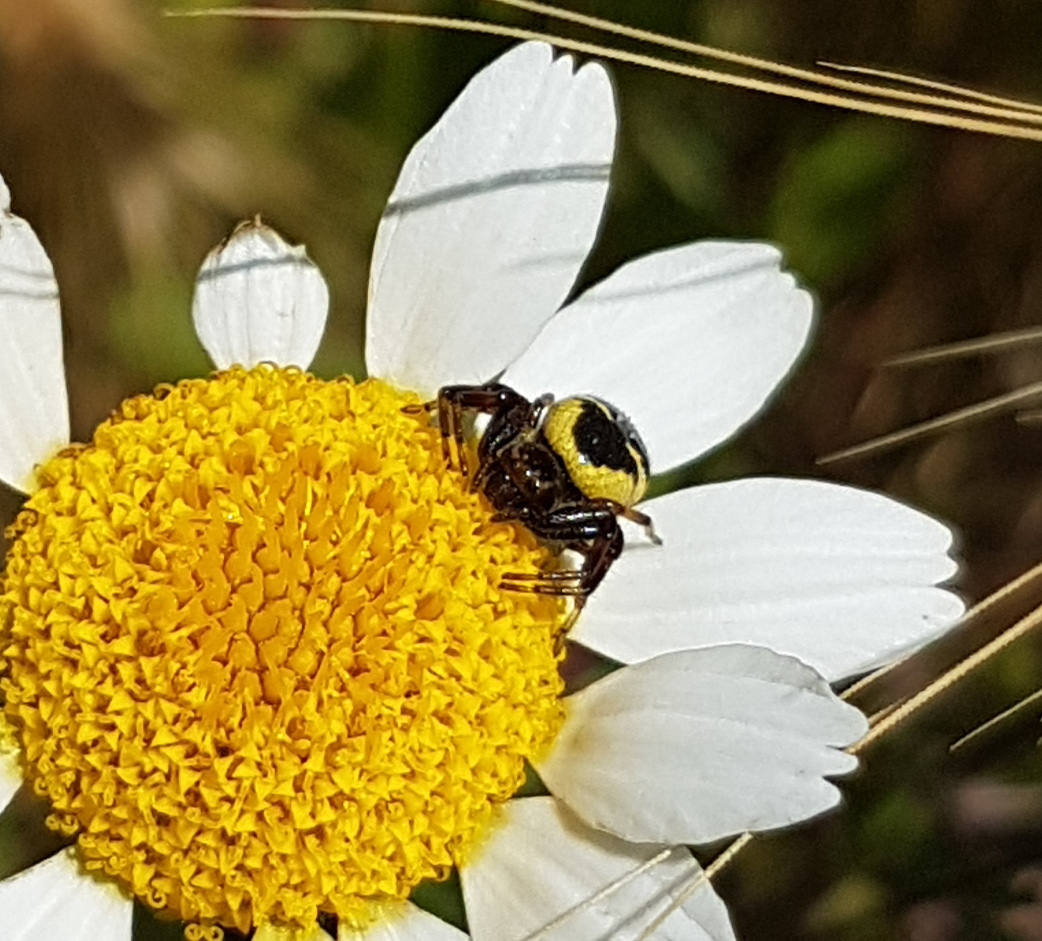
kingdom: Animalia
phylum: Arthropoda
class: Arachnida
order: Araneae
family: Thomisidae
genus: Synema
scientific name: Synema globosum
